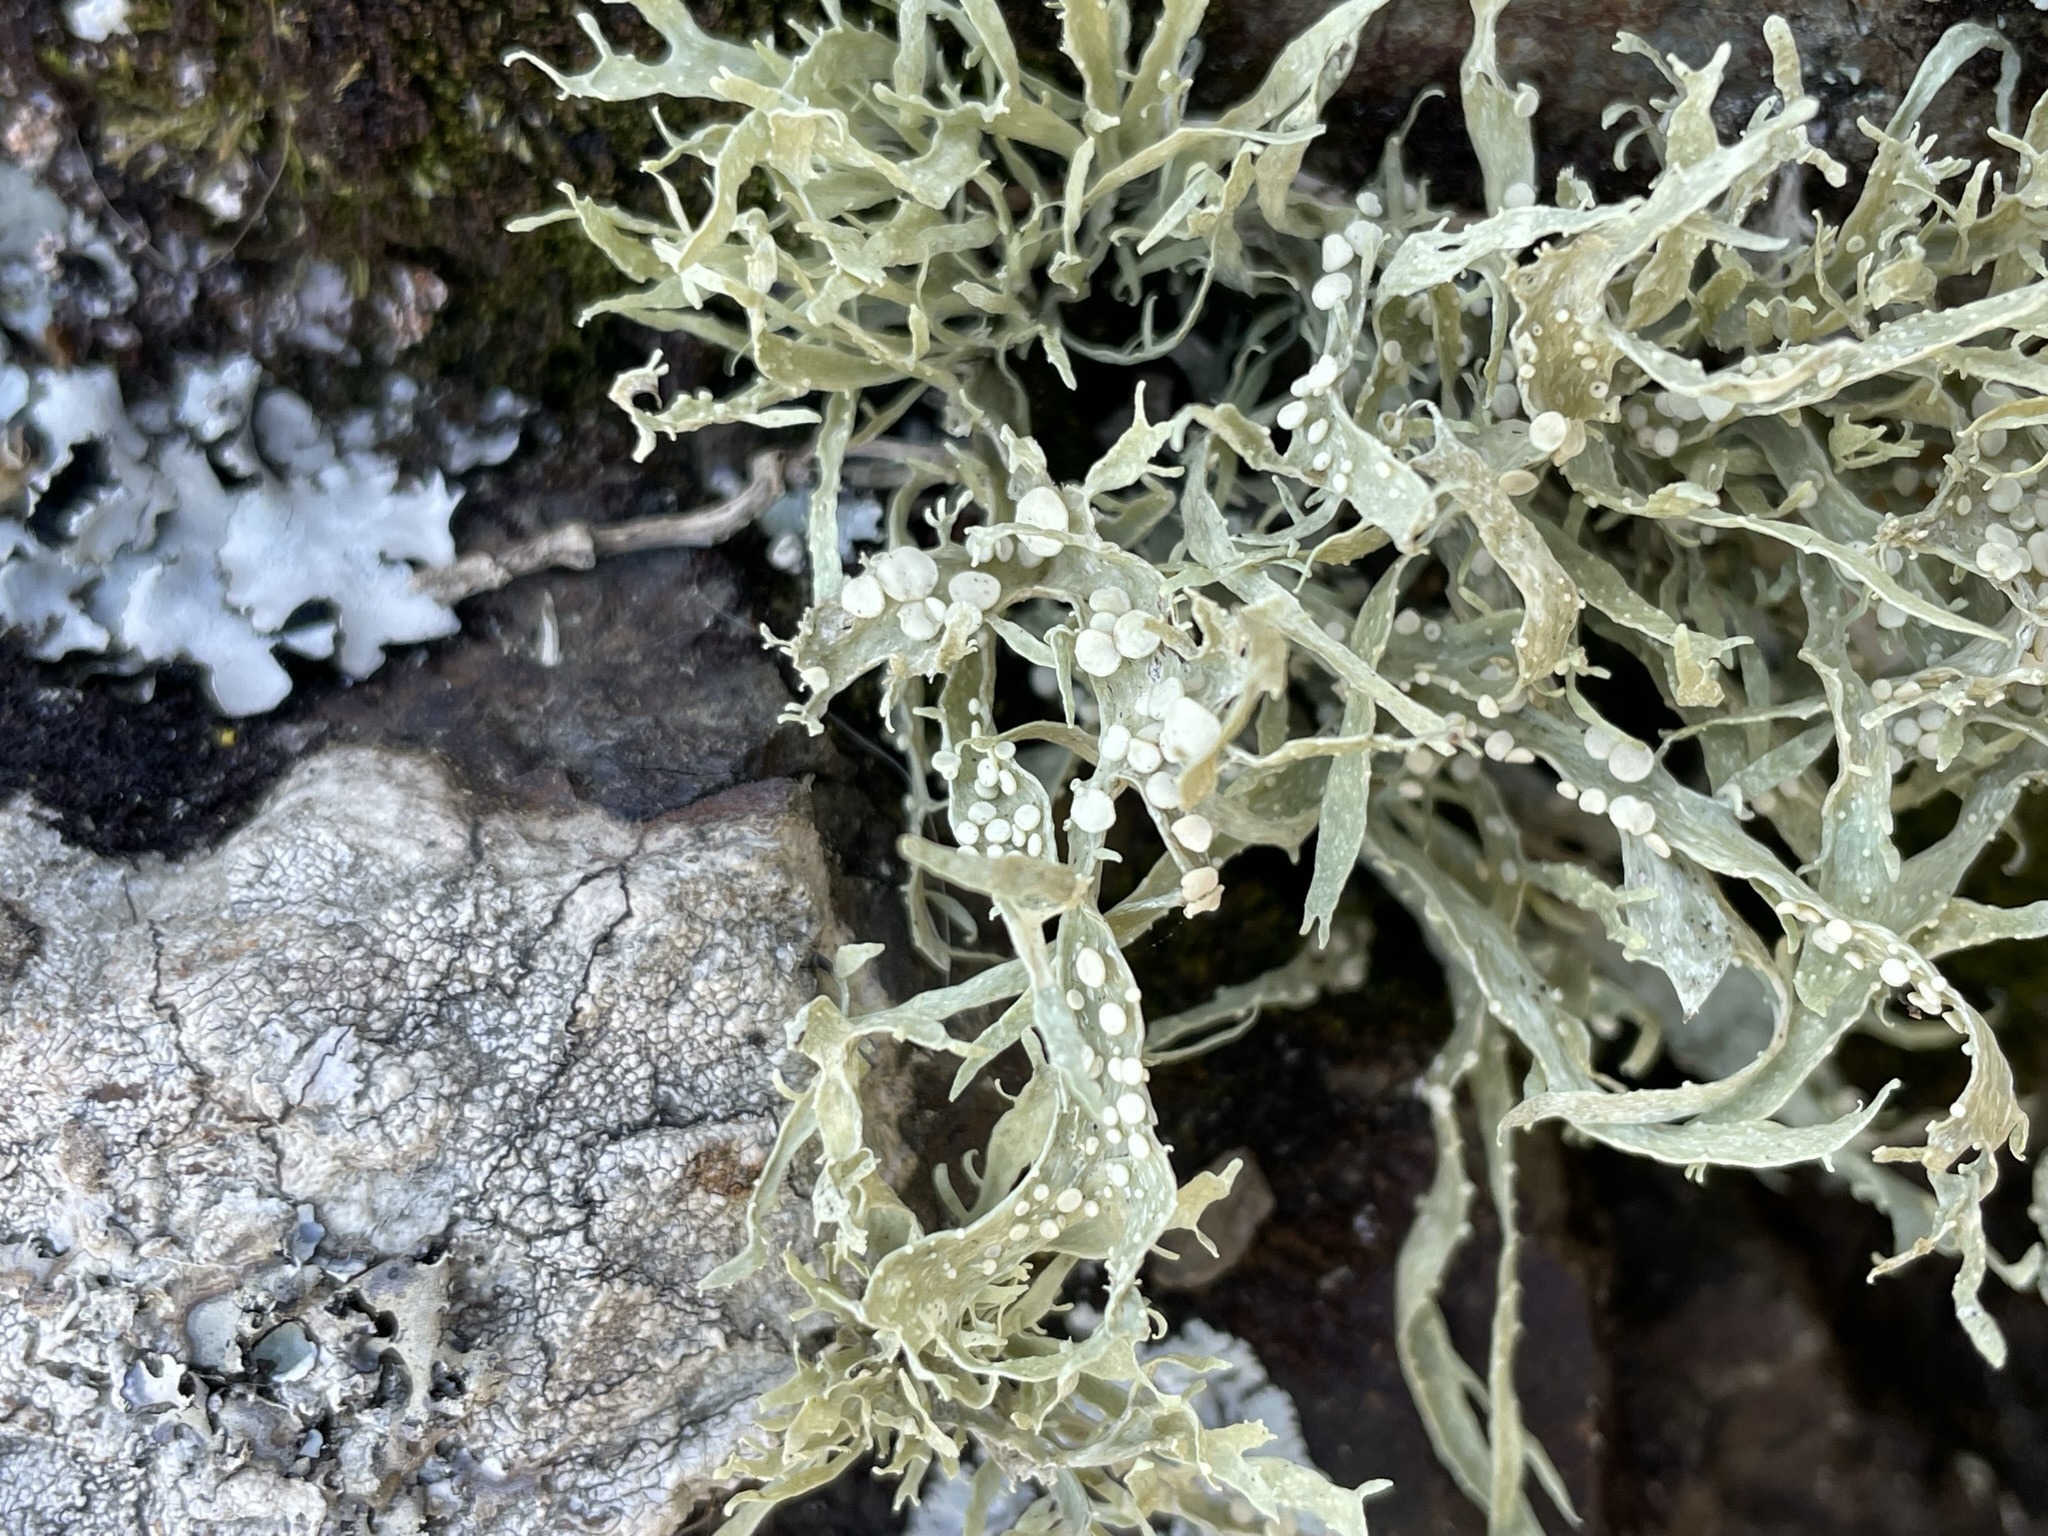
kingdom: Fungi
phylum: Ascomycota
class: Lecanoromycetes
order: Lecanorales
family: Ramalinaceae
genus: Ramalina
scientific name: Ramalina celastri
